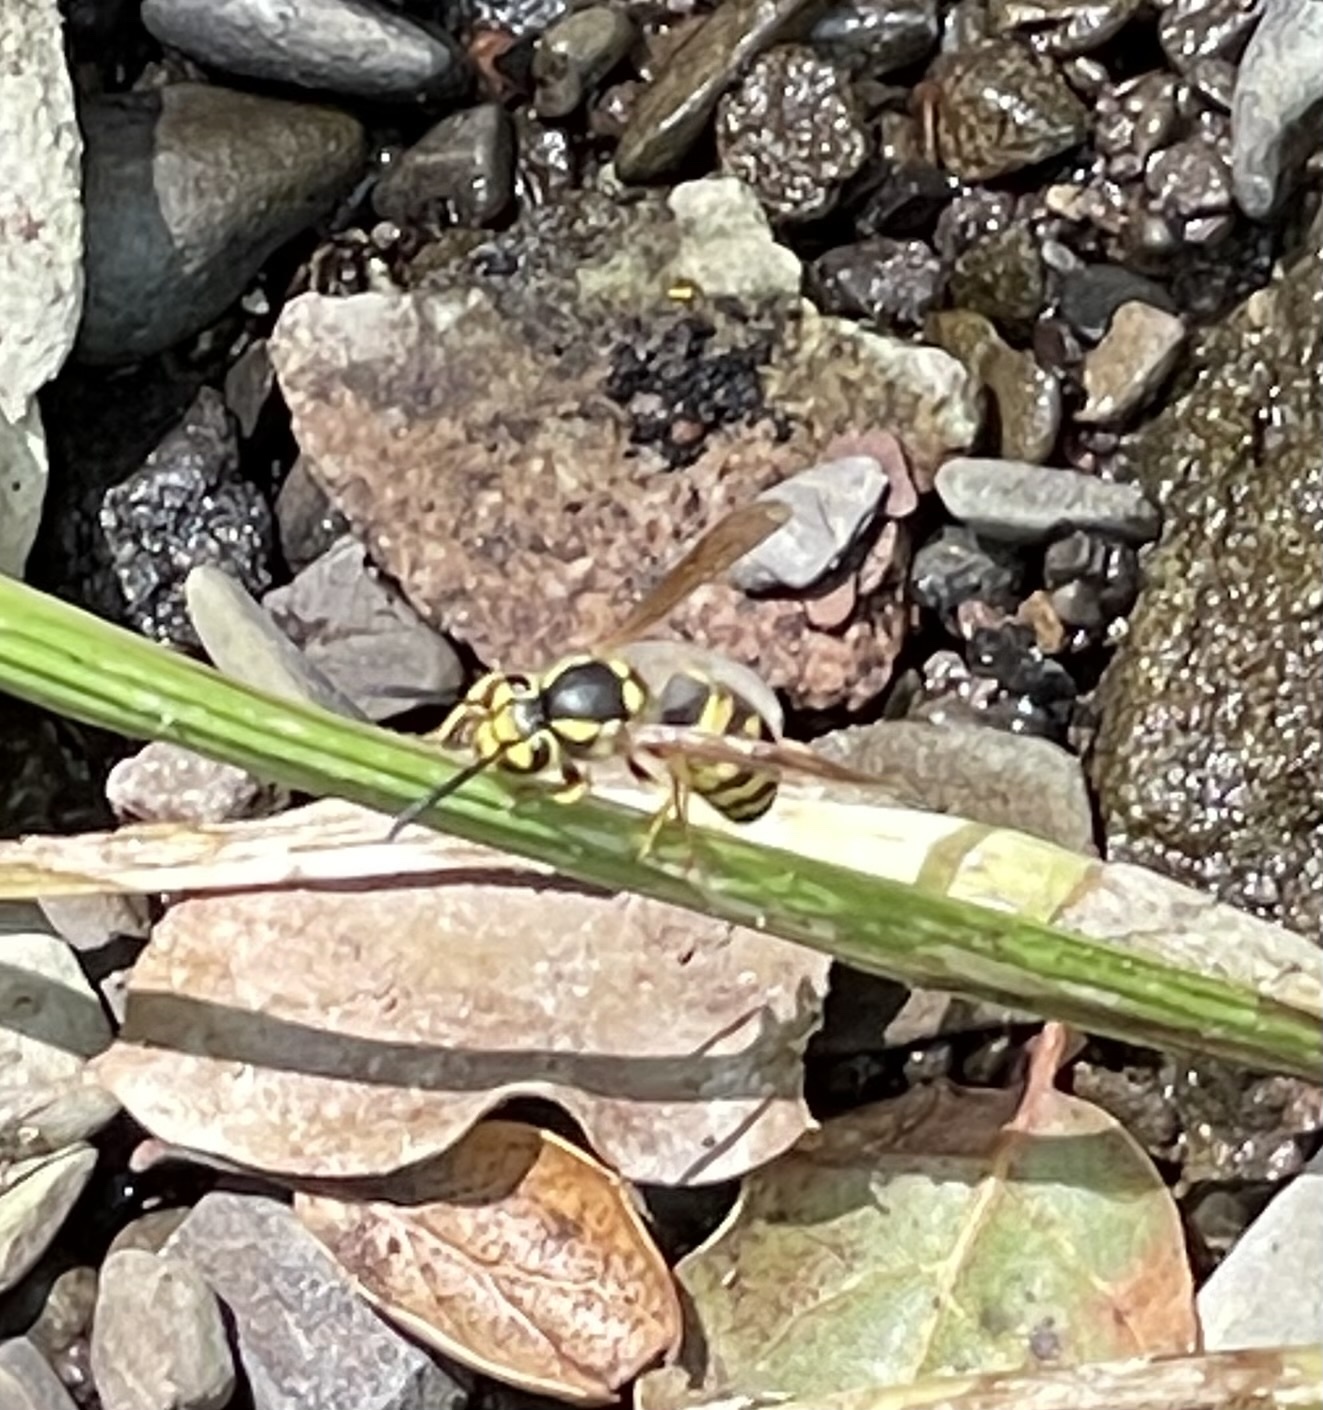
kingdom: Animalia
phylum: Arthropoda
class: Insecta
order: Hymenoptera
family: Vespidae
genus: Vespula
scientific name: Vespula pensylvanica
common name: Western yellowjacket
